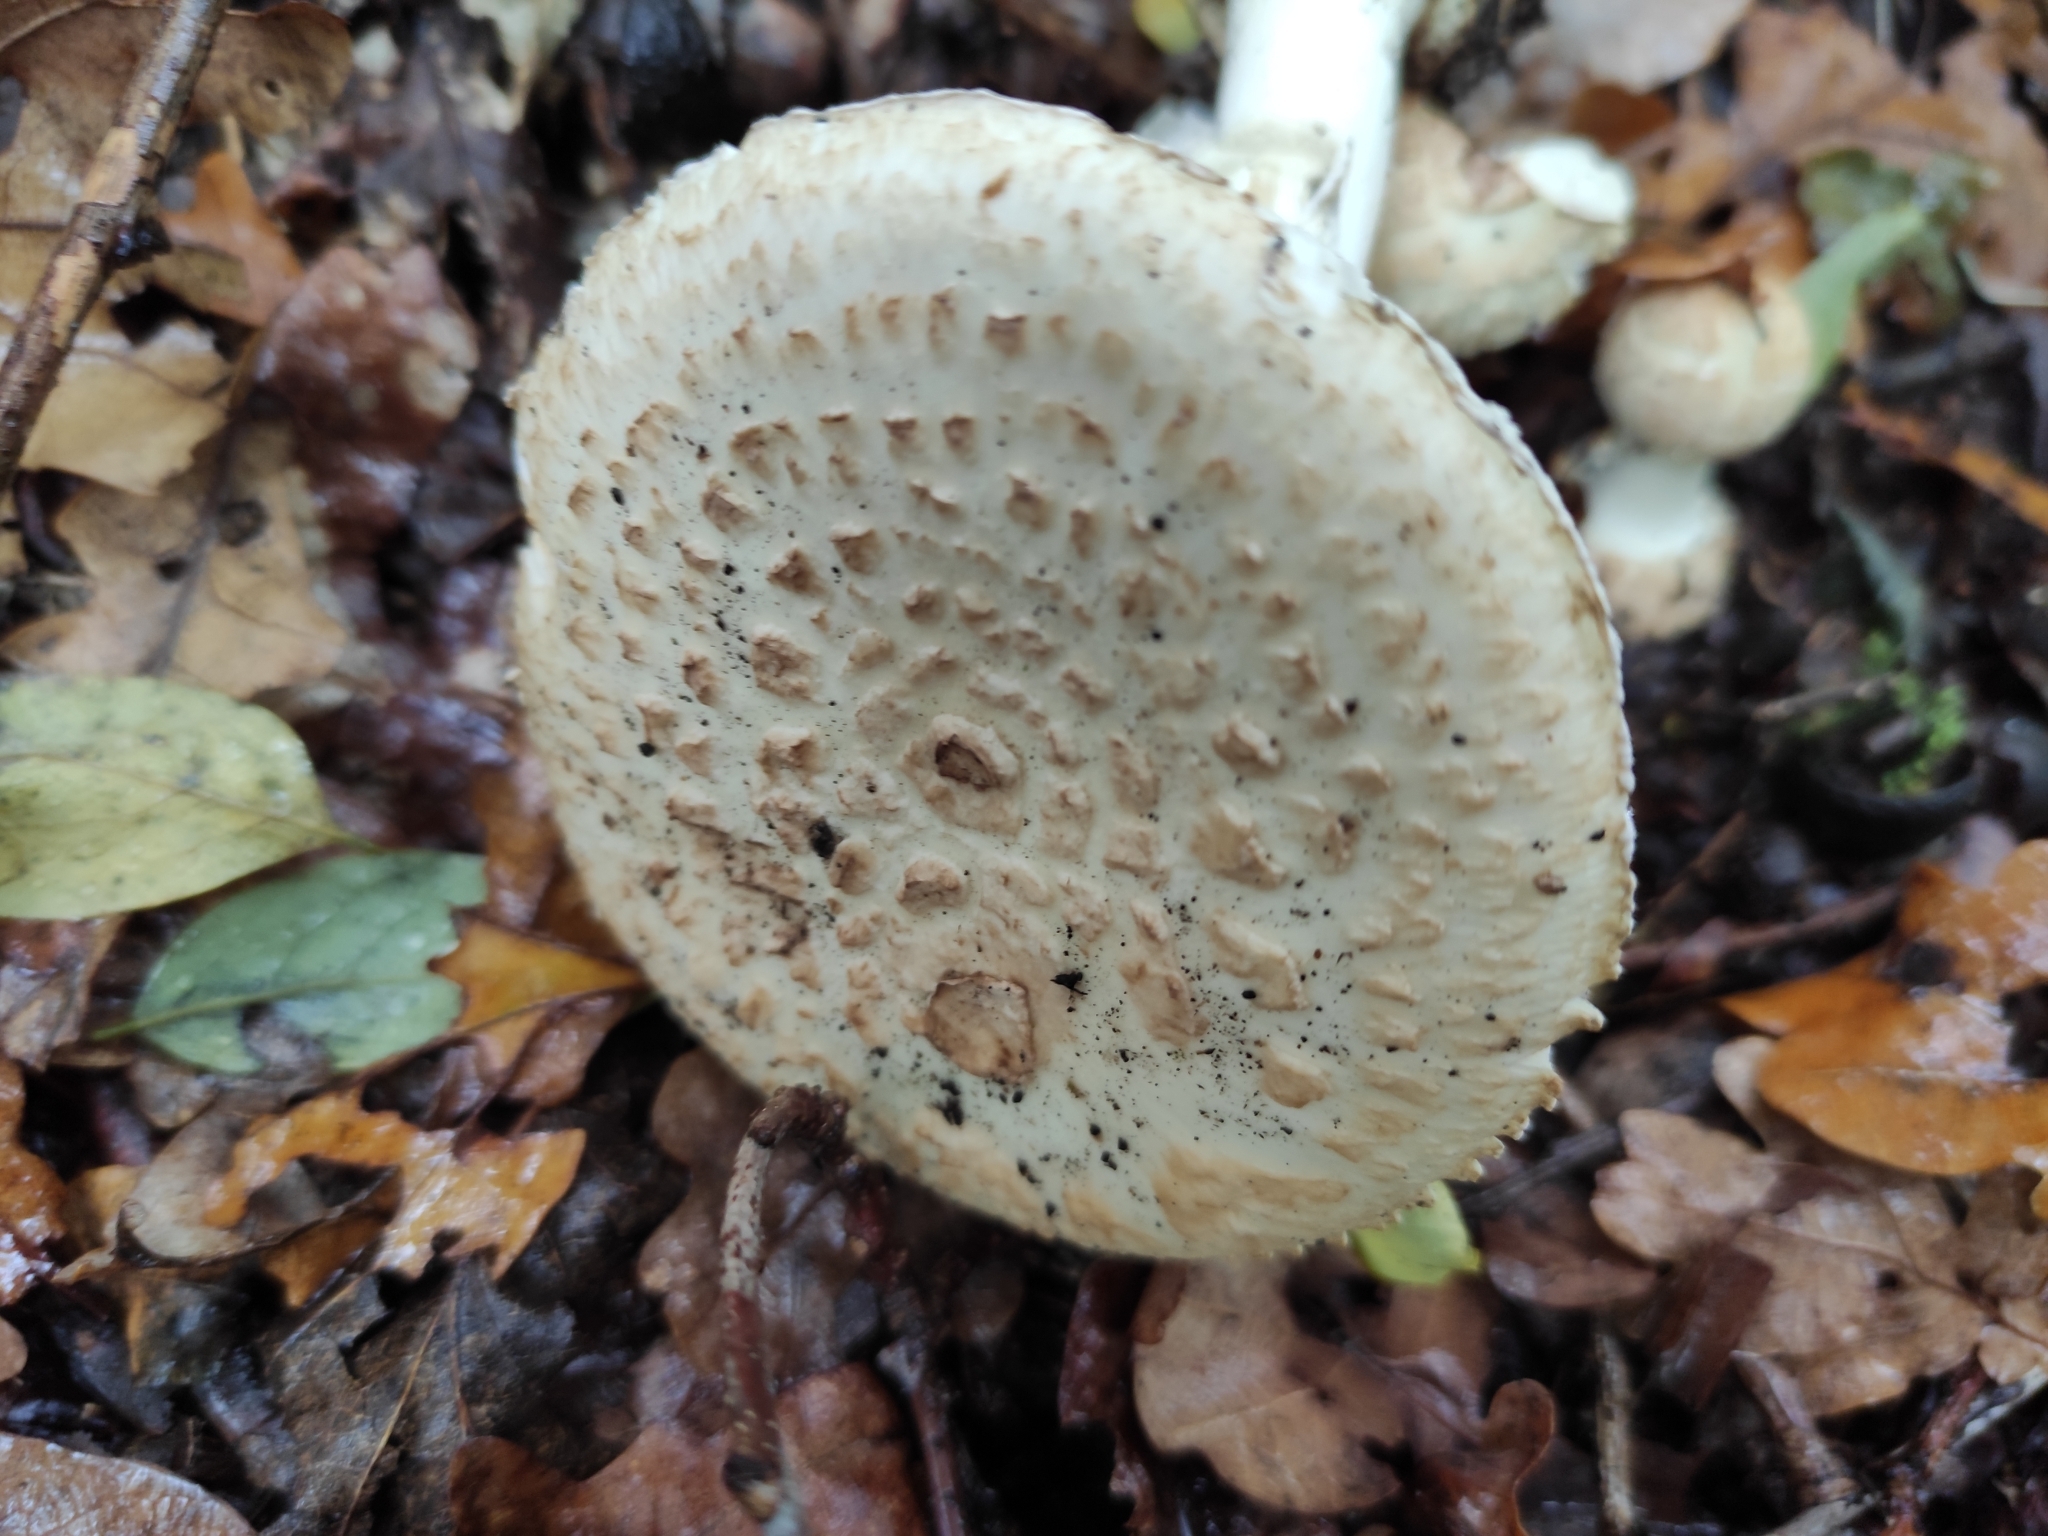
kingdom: Fungi
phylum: Basidiomycota
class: Agaricomycetes
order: Agaricales
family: Amanitaceae
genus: Amanita
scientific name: Amanita citrina
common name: False death-cap
